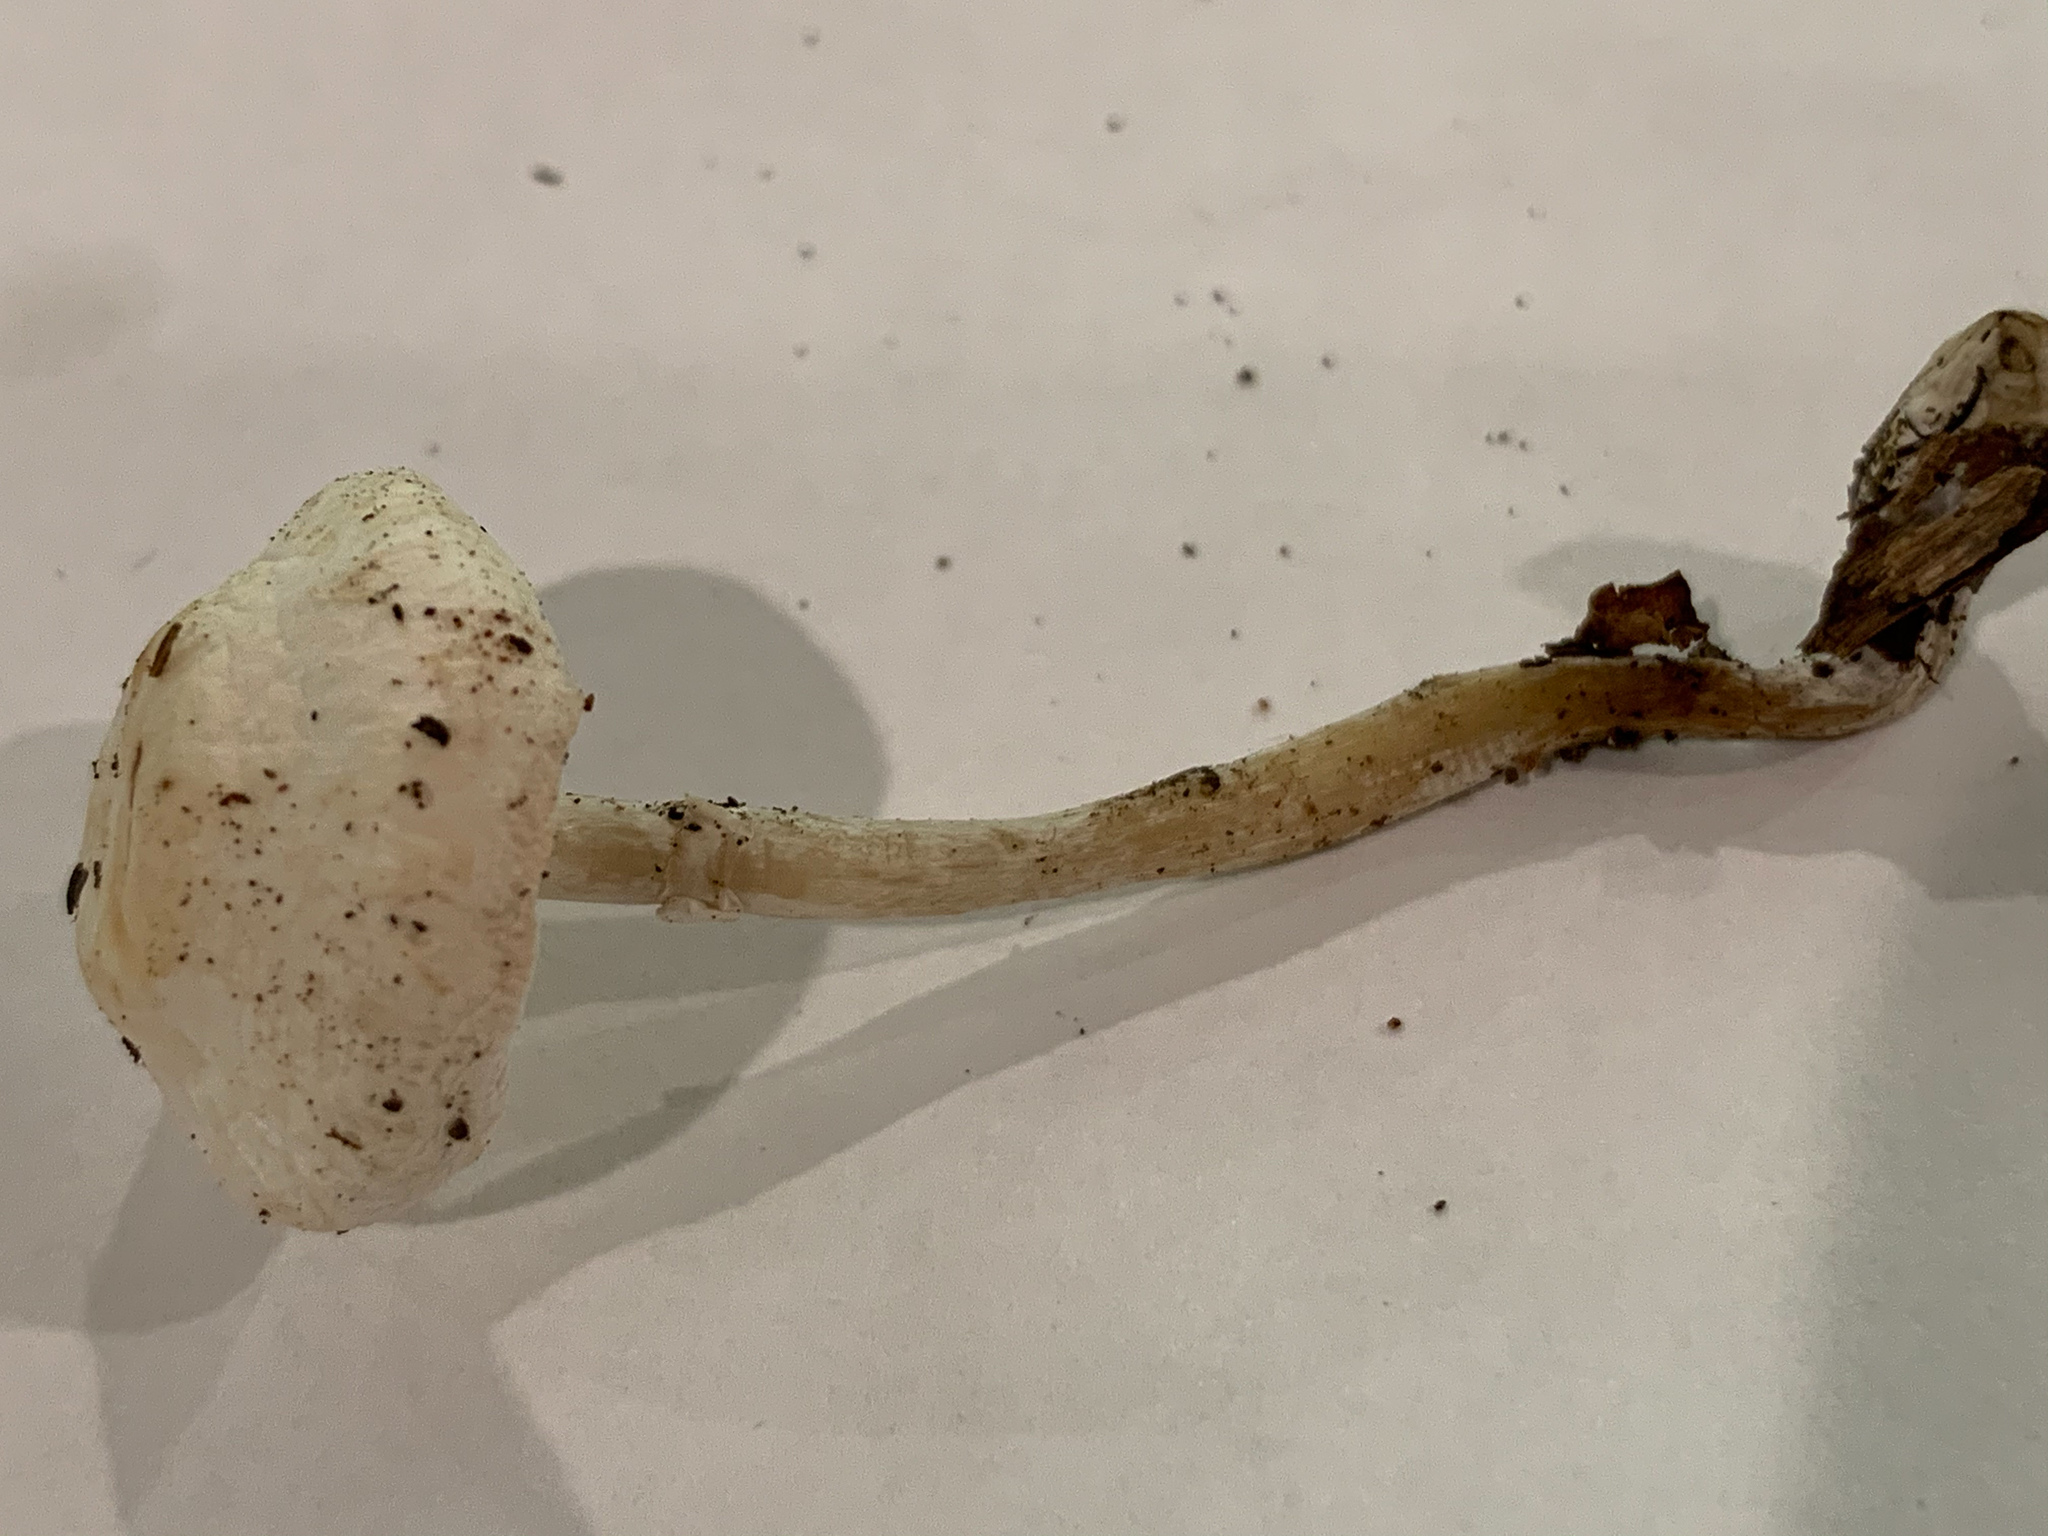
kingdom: Fungi
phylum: Basidiomycota
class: Agaricomycetes
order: Agaricales
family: Agaricaceae
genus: Leucocoprinus
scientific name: Leucocoprinus cepistipes
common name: Onion-stalk parasol
